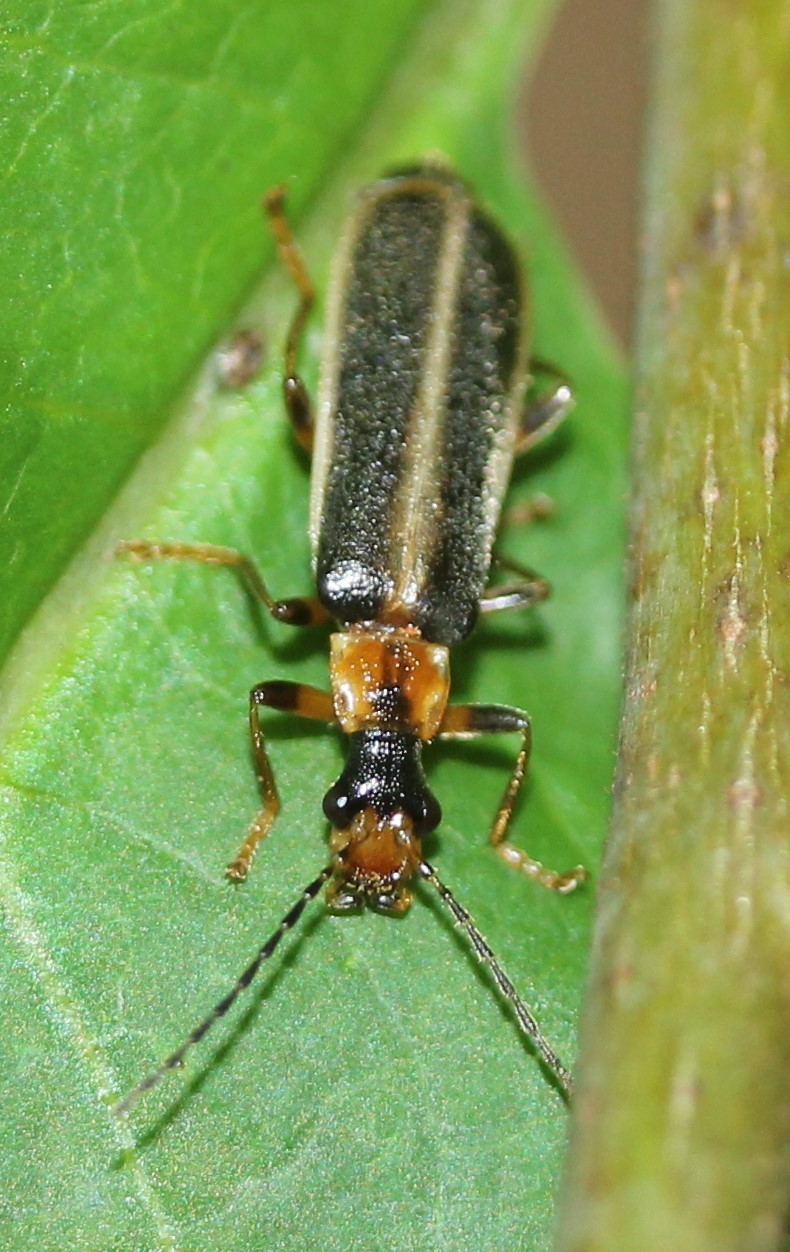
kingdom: Animalia
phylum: Arthropoda
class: Insecta
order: Coleoptera
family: Cantharidae
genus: Podabrus
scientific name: Podabrus brunnicollis
